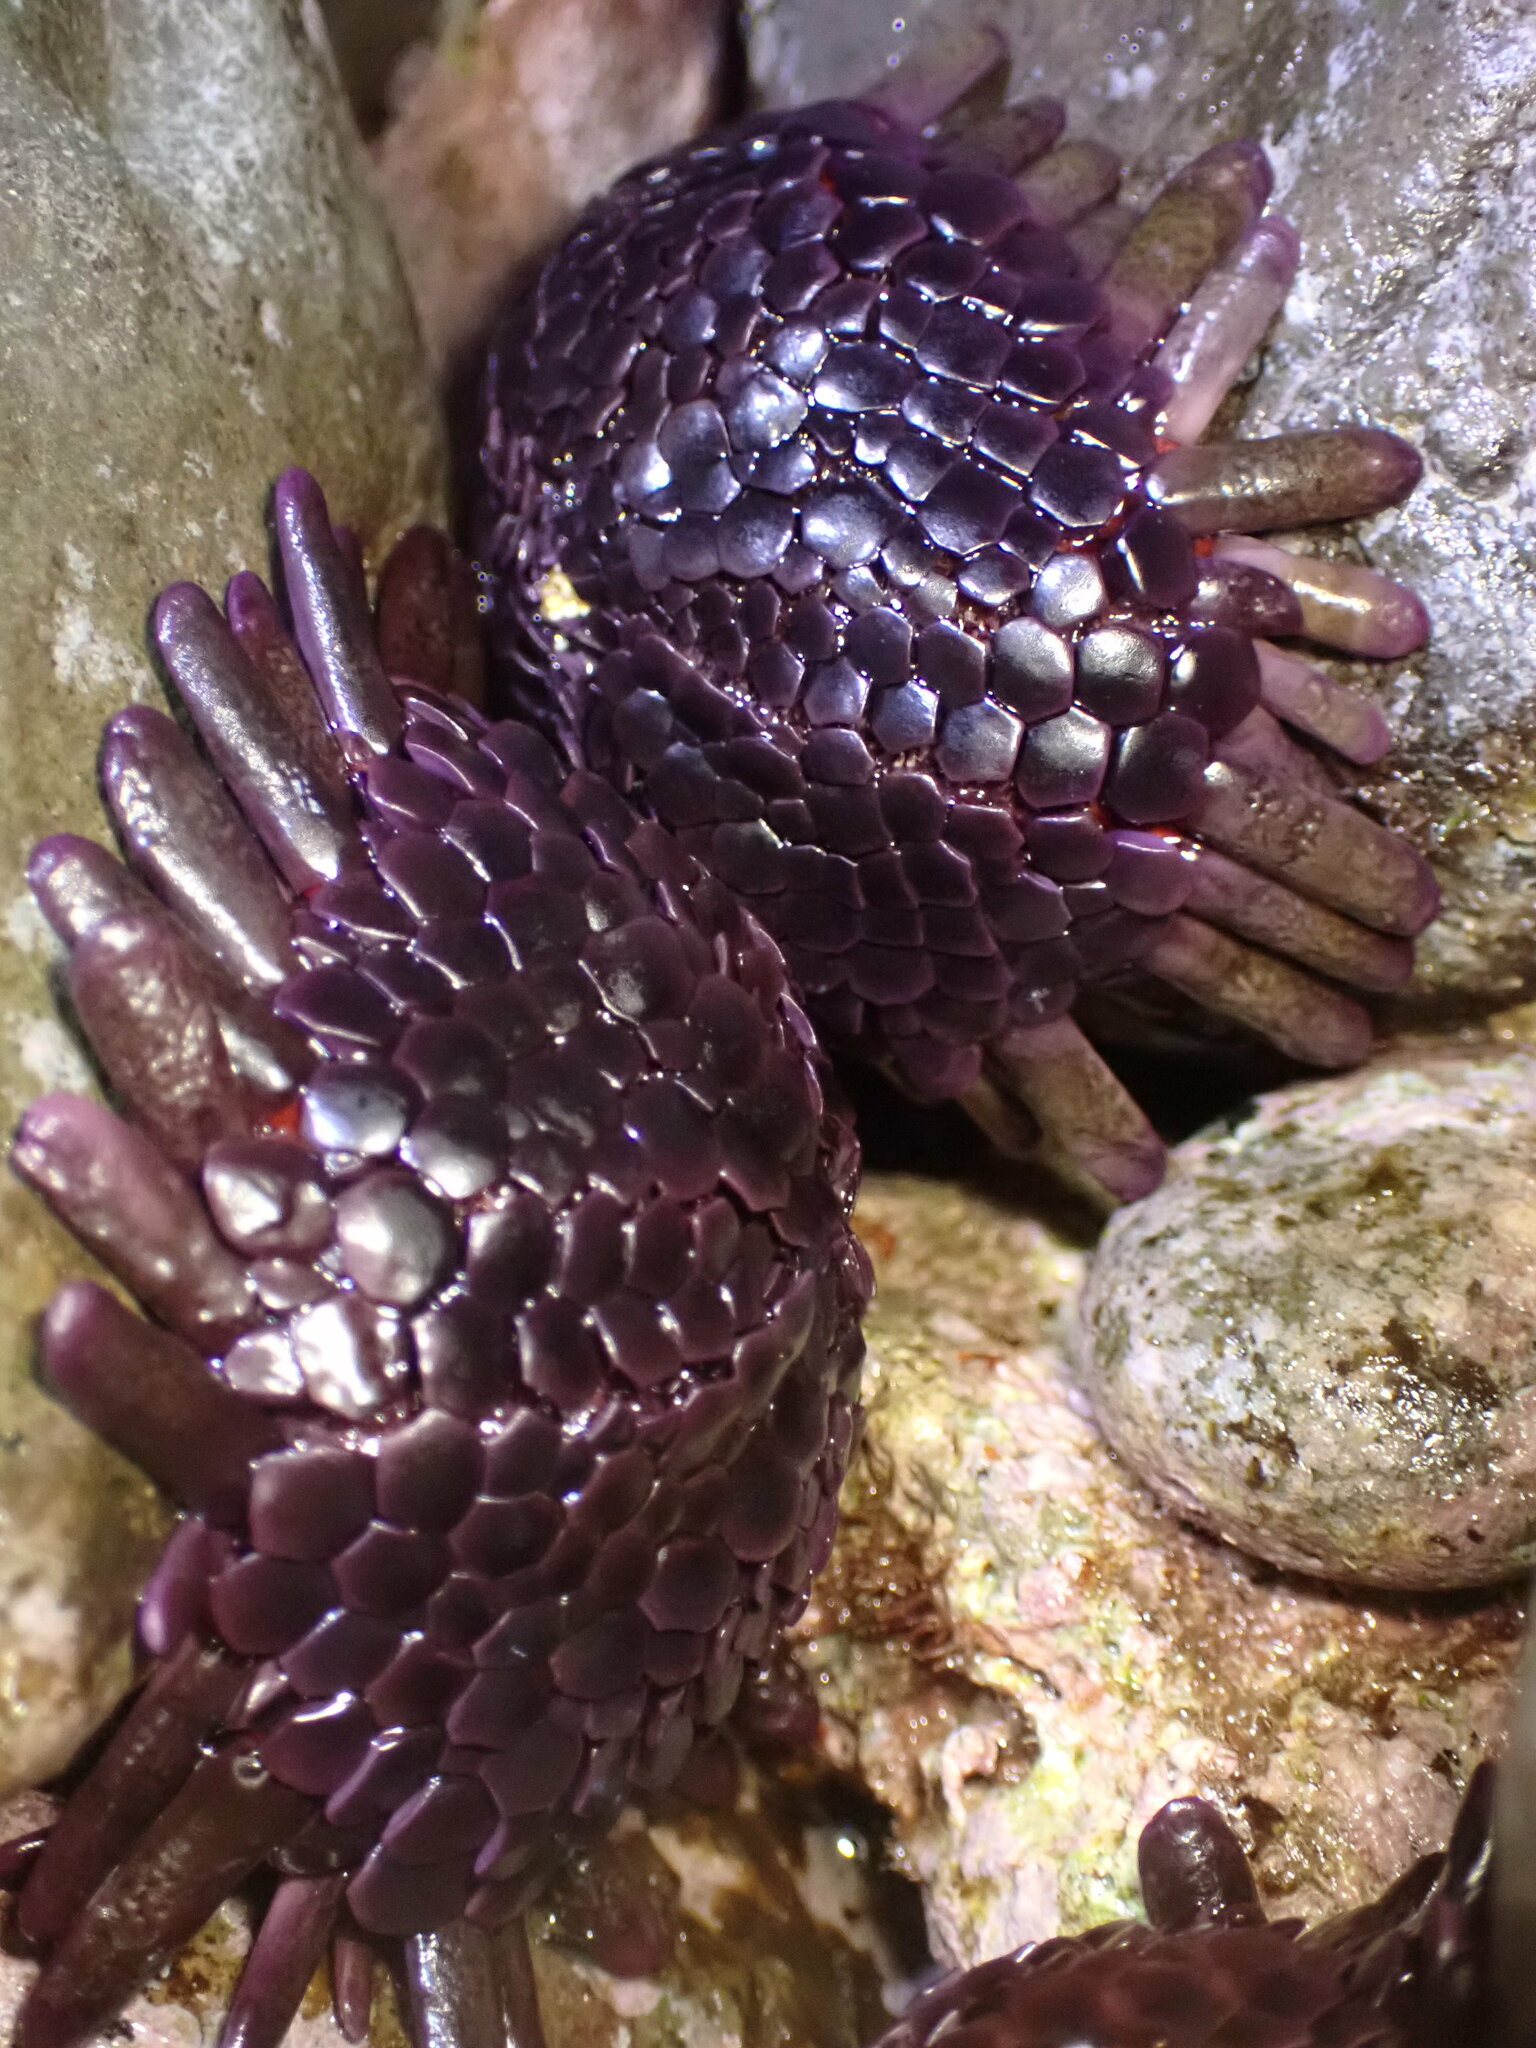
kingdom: Animalia
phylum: Echinodermata
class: Echinoidea
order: Camarodonta
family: Echinometridae
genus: Colobocentrotus
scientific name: Colobocentrotus atratus
